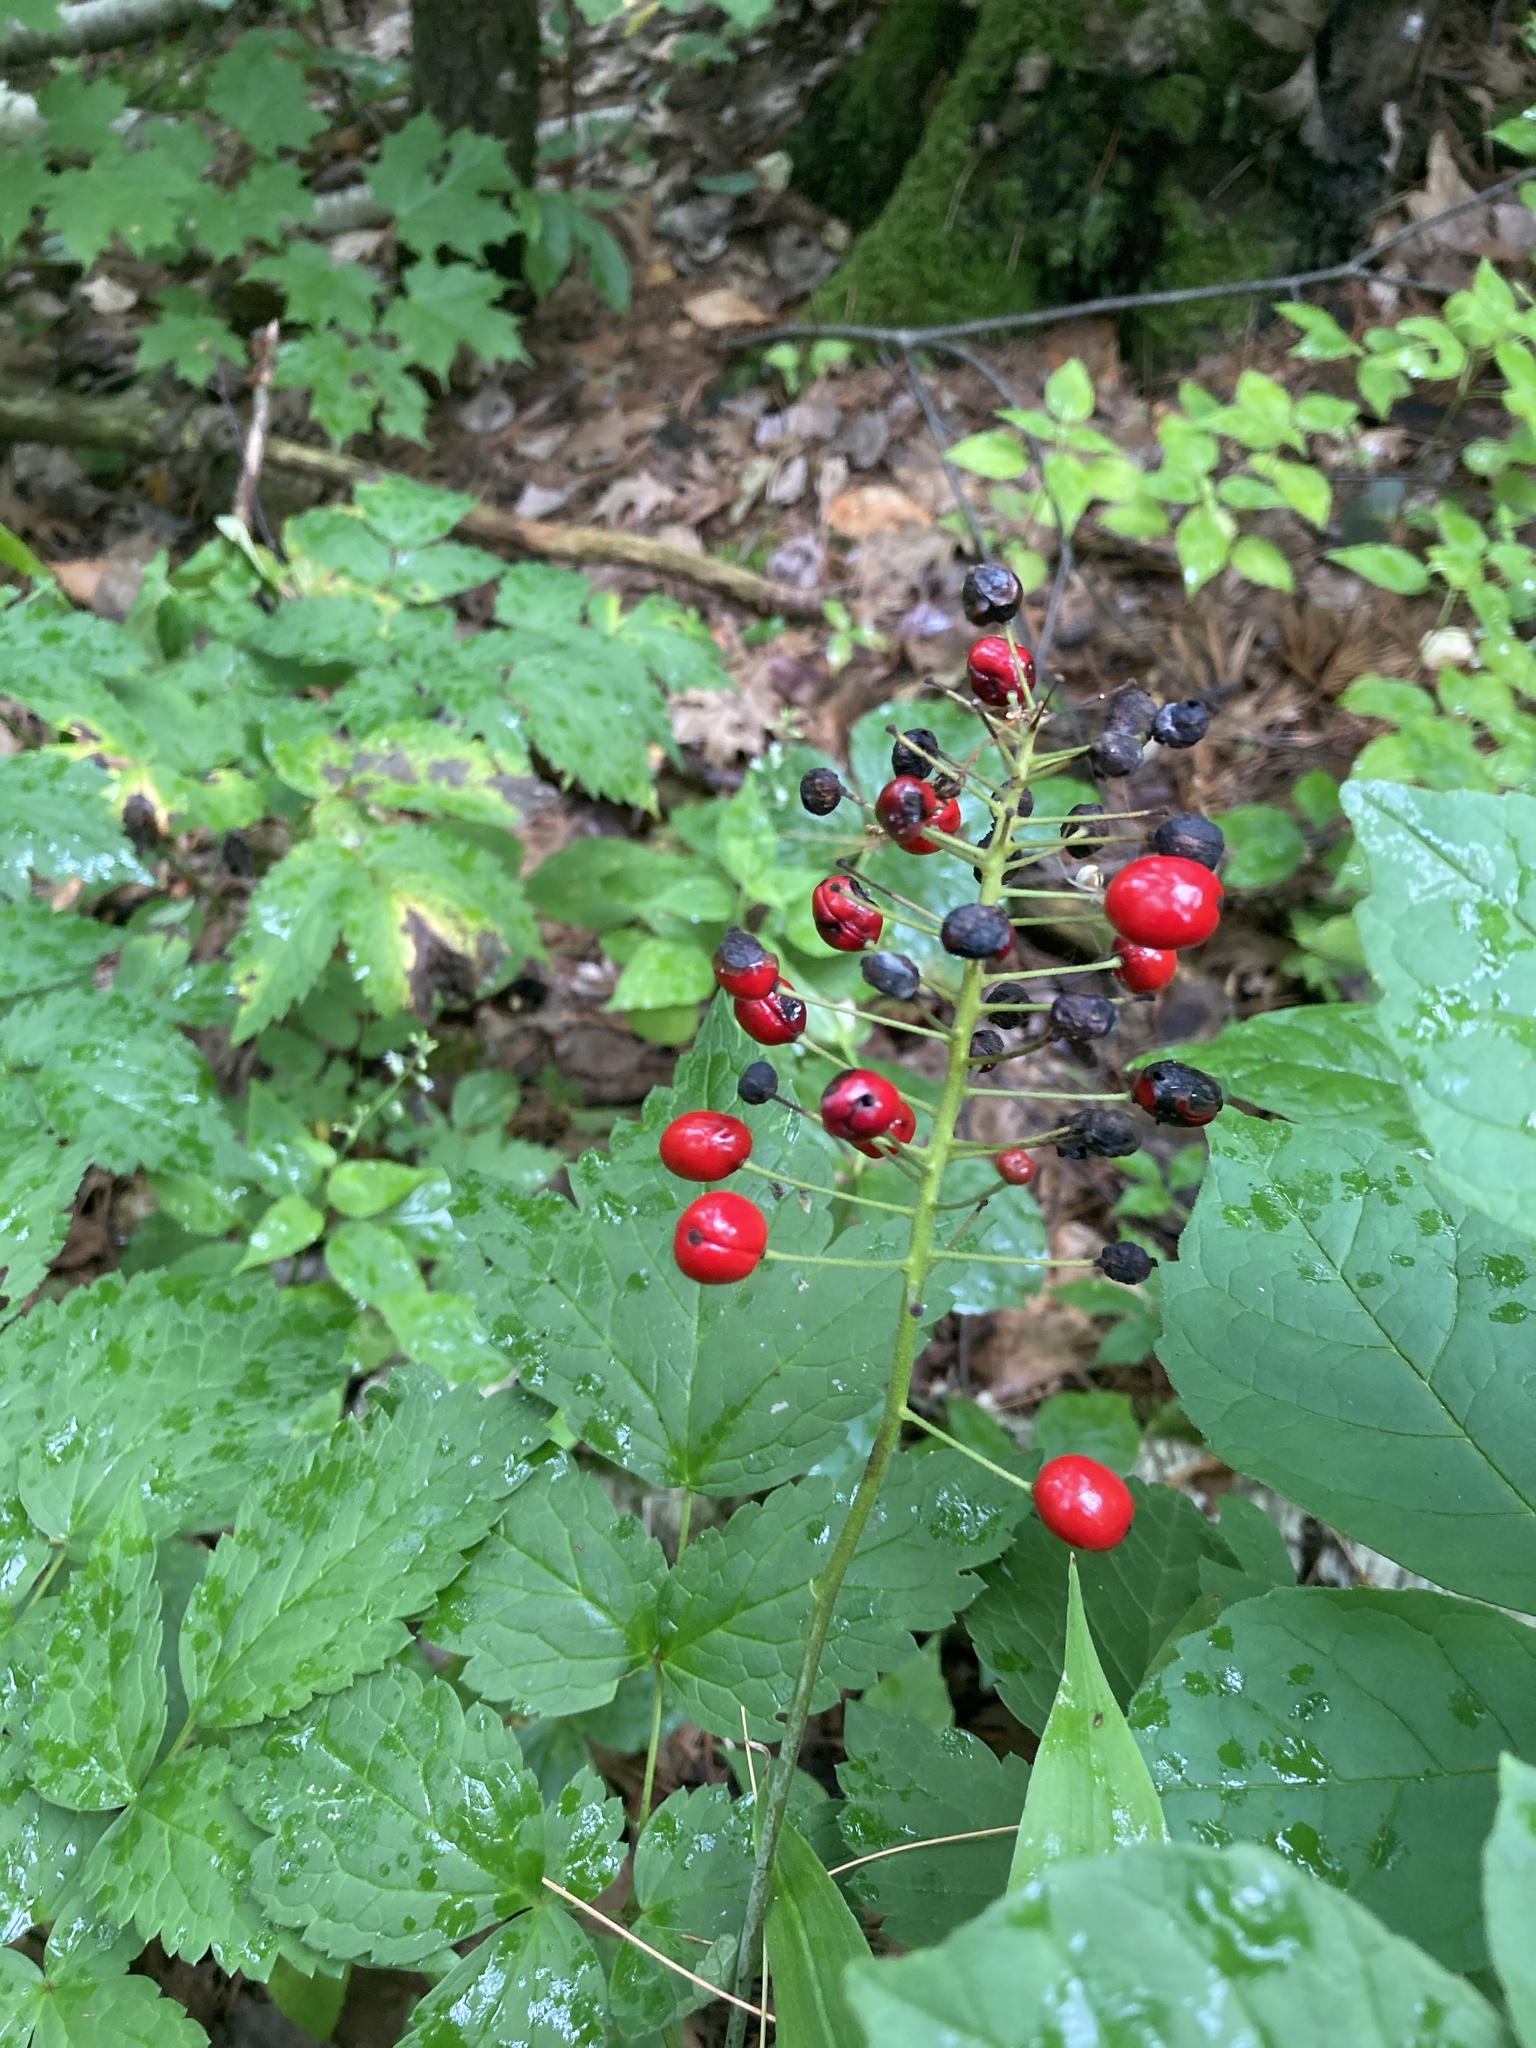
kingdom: Plantae
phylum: Tracheophyta
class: Magnoliopsida
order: Ranunculales
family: Ranunculaceae
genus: Actaea
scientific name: Actaea rubra
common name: Red baneberry
